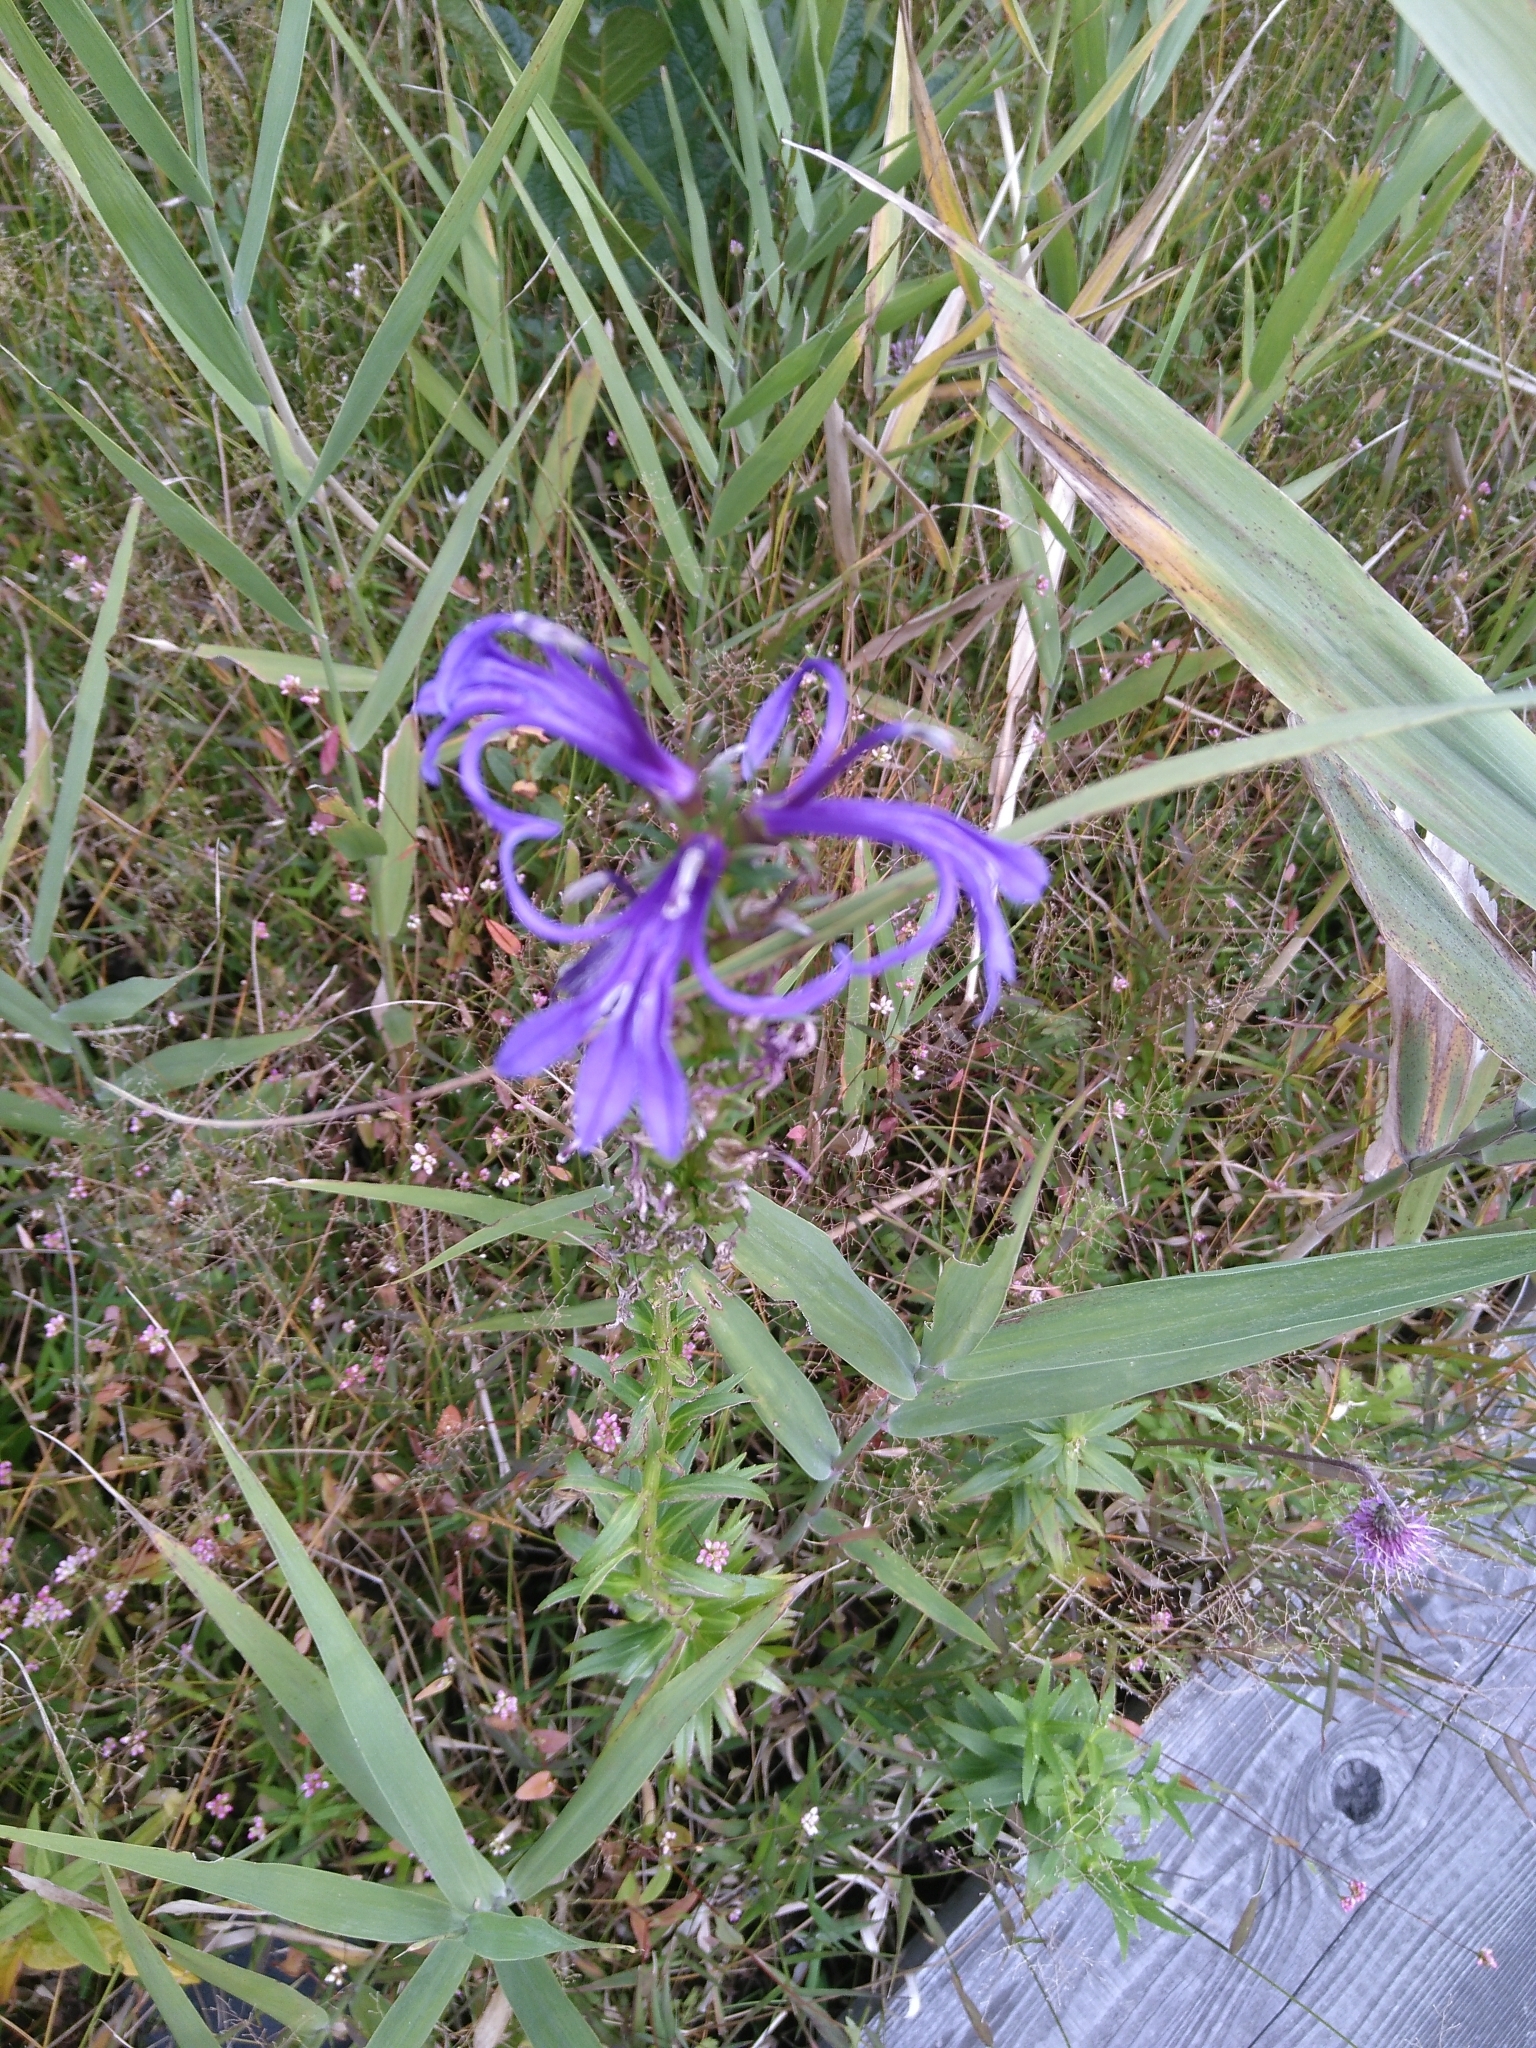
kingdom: Plantae
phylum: Tracheophyta
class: Magnoliopsida
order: Asterales
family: Campanulaceae
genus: Lobelia
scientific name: Lobelia sessilifolia
